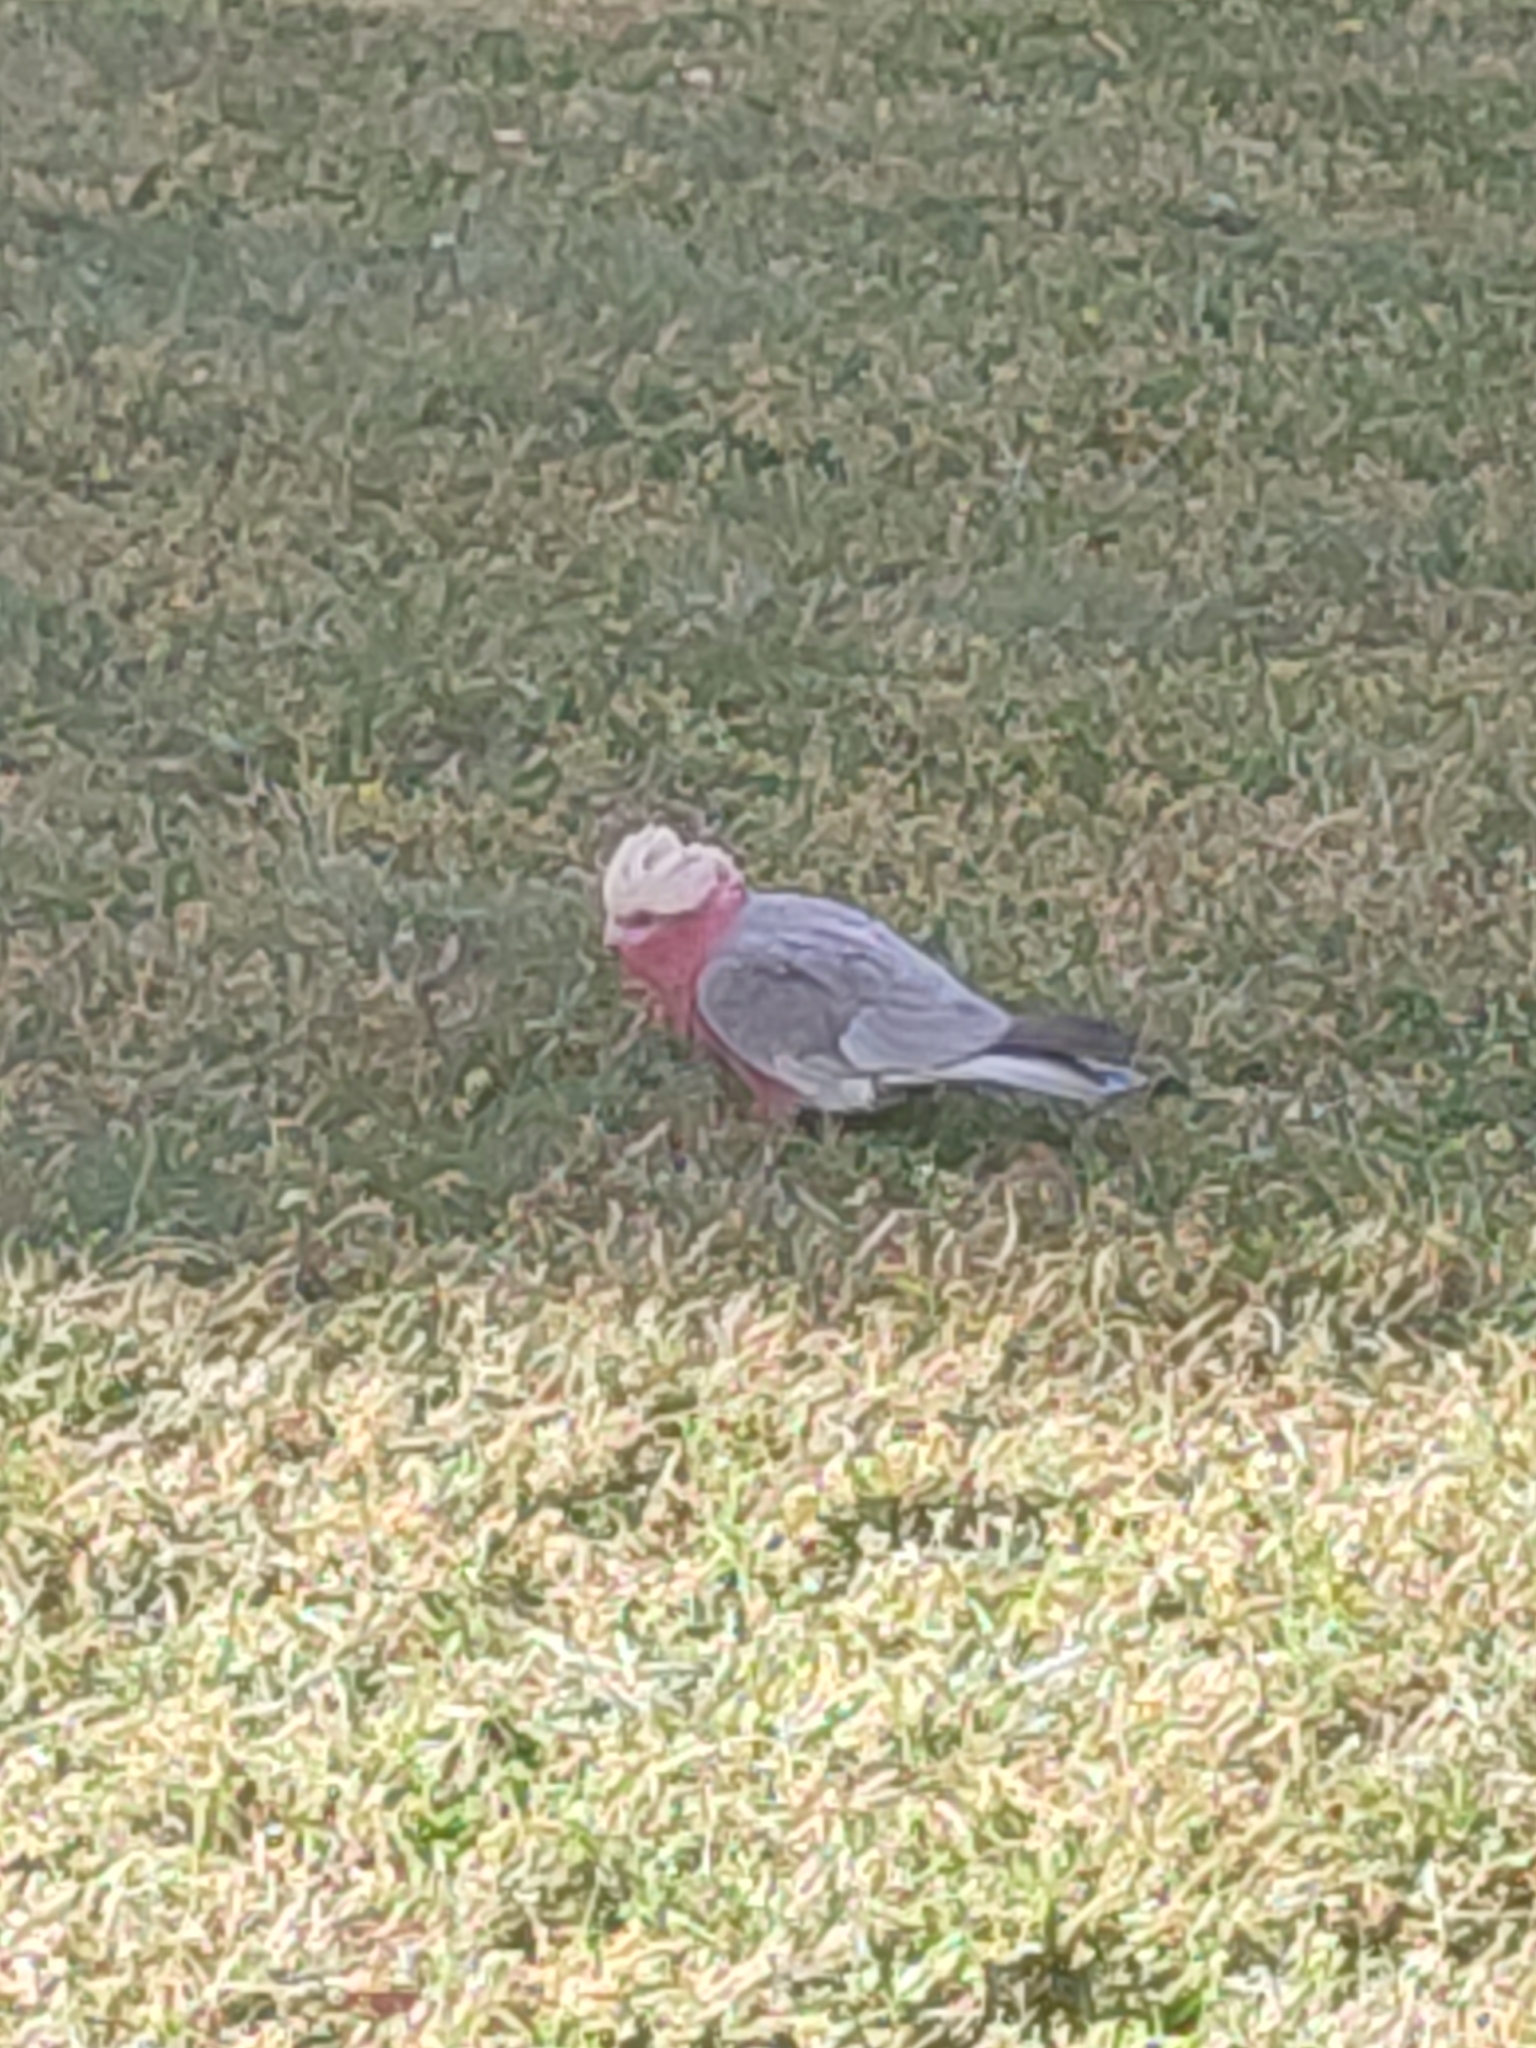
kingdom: Animalia
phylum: Chordata
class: Aves
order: Psittaciformes
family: Psittacidae
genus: Eolophus
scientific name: Eolophus roseicapilla
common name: Galah
